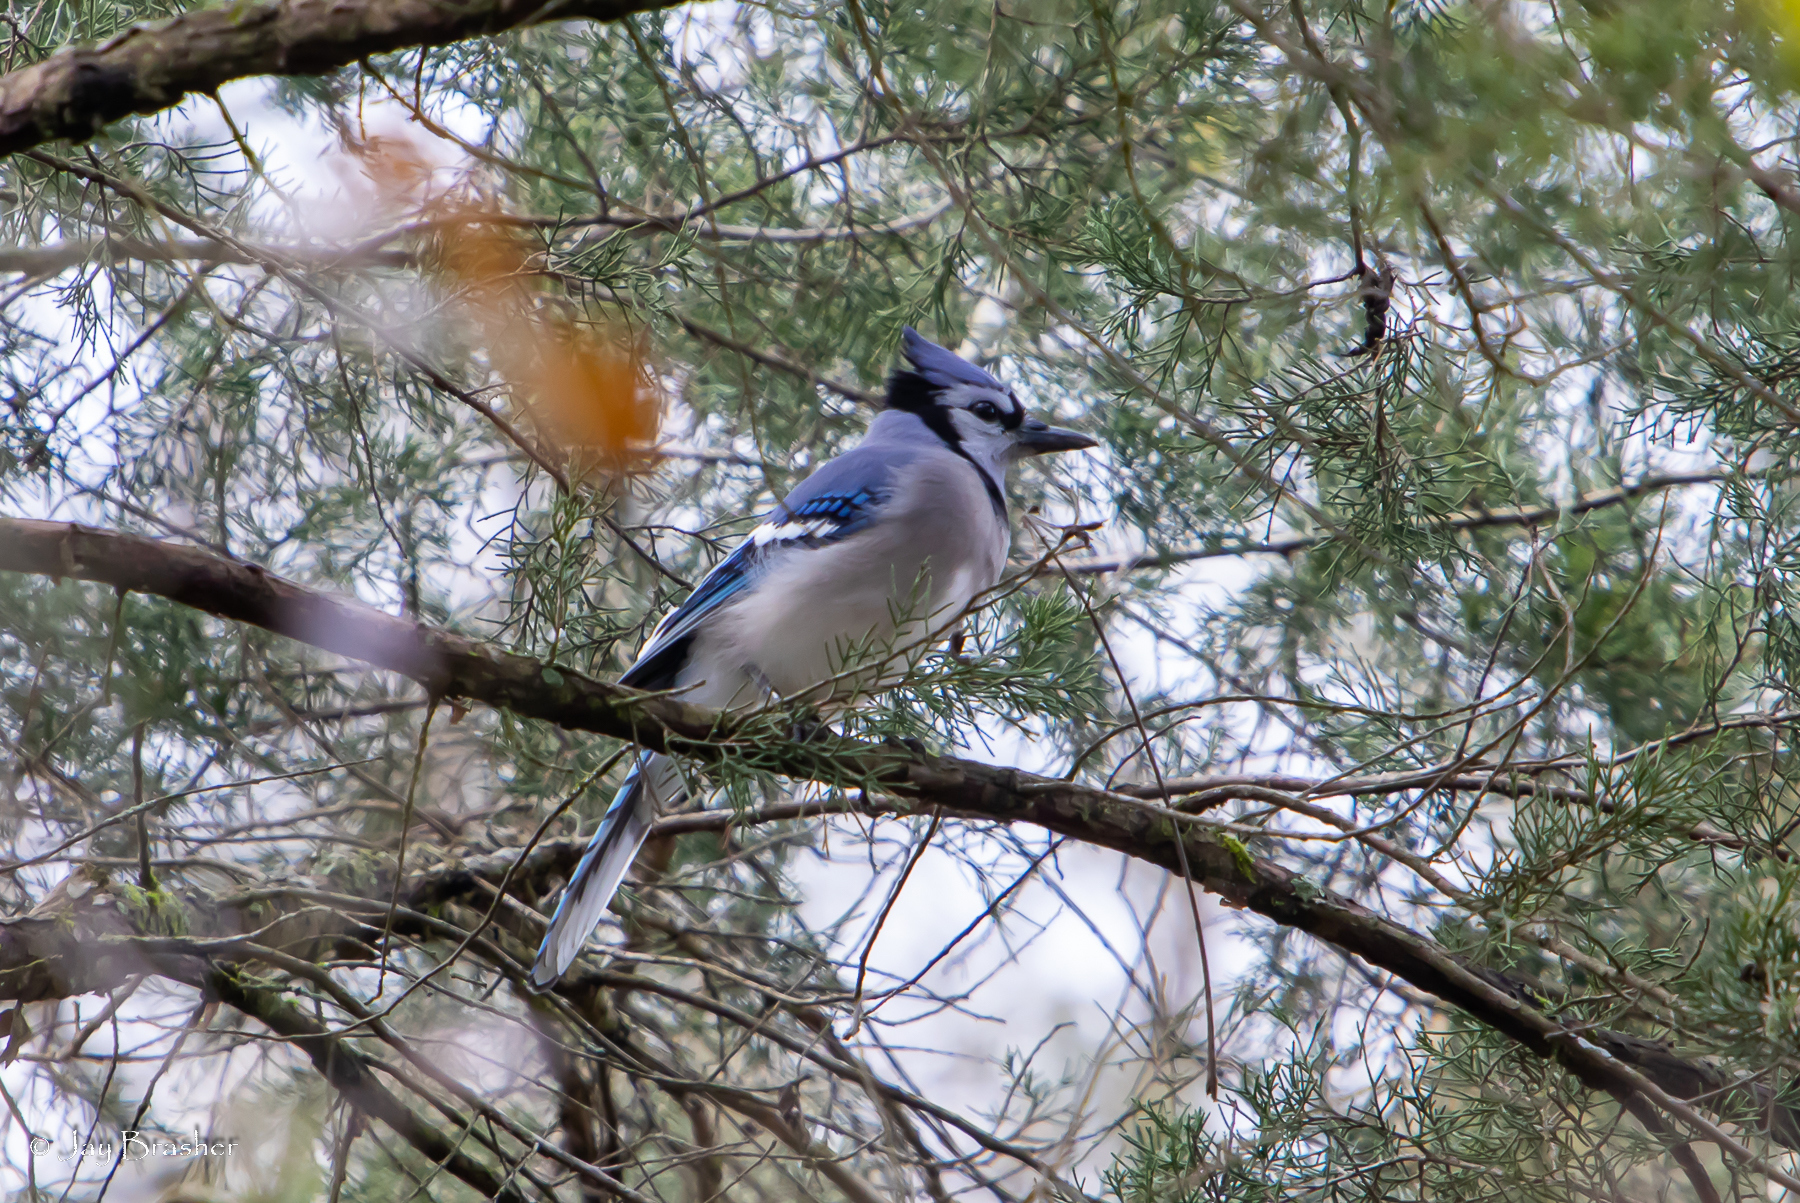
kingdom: Animalia
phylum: Chordata
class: Aves
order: Passeriformes
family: Corvidae
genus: Cyanocitta
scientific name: Cyanocitta cristata
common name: Blue jay
